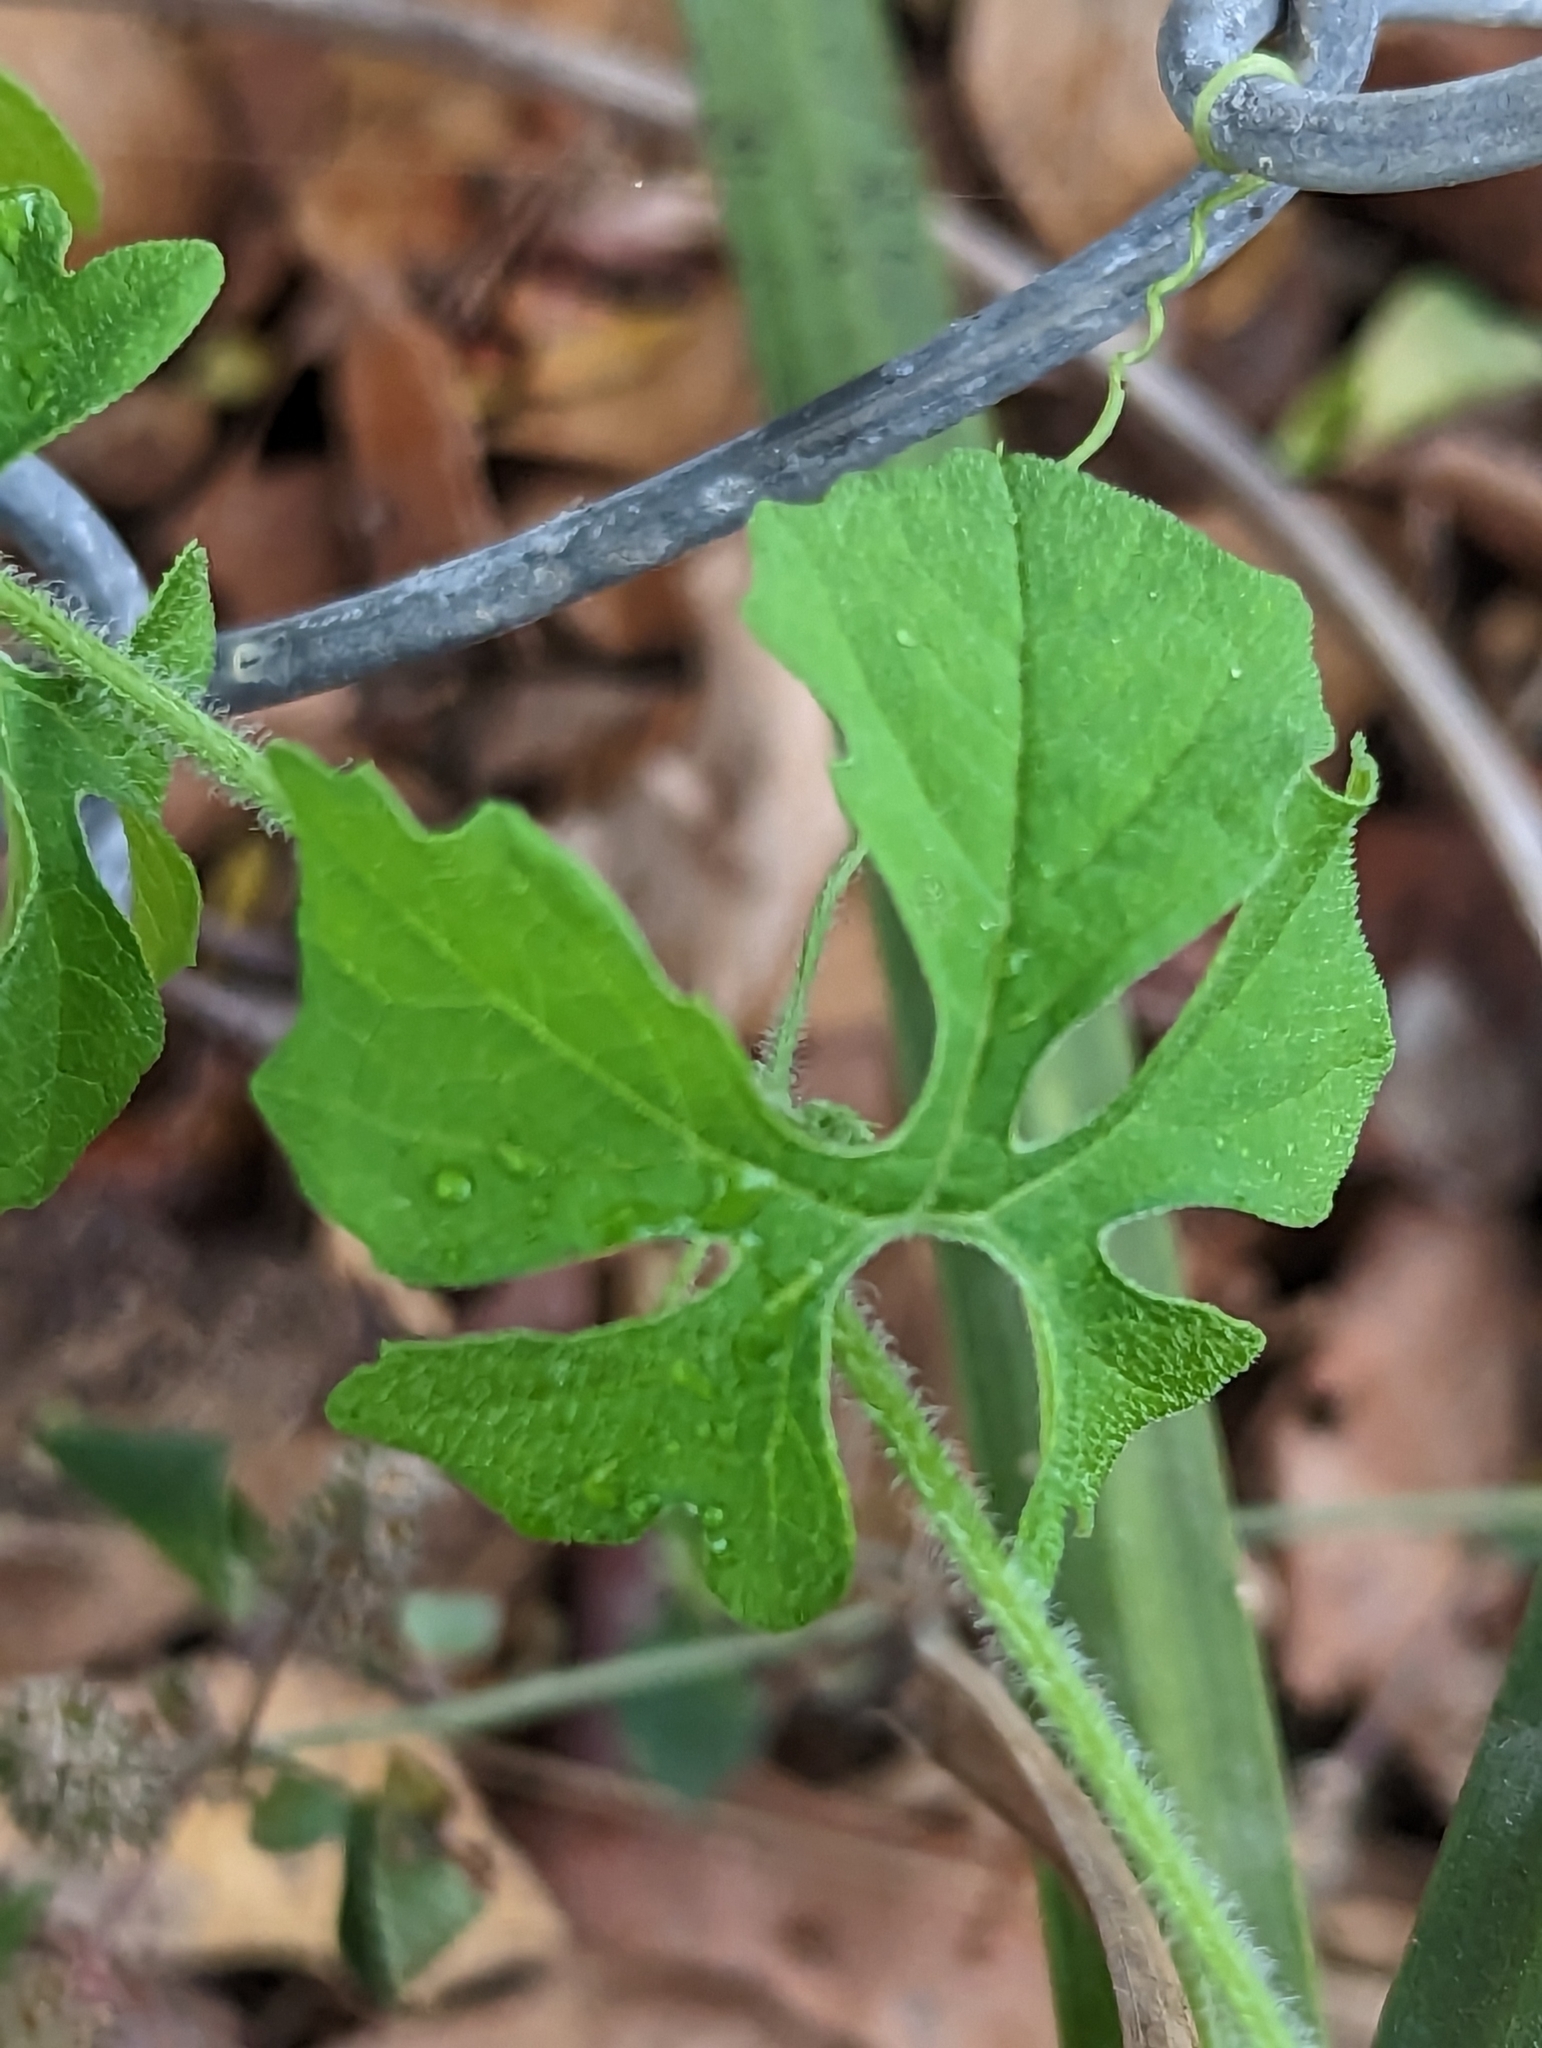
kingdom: Plantae
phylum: Tracheophyta
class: Magnoliopsida
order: Cucurbitales
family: Cucurbitaceae
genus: Momordica
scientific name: Momordica charantia
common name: Balsampear
